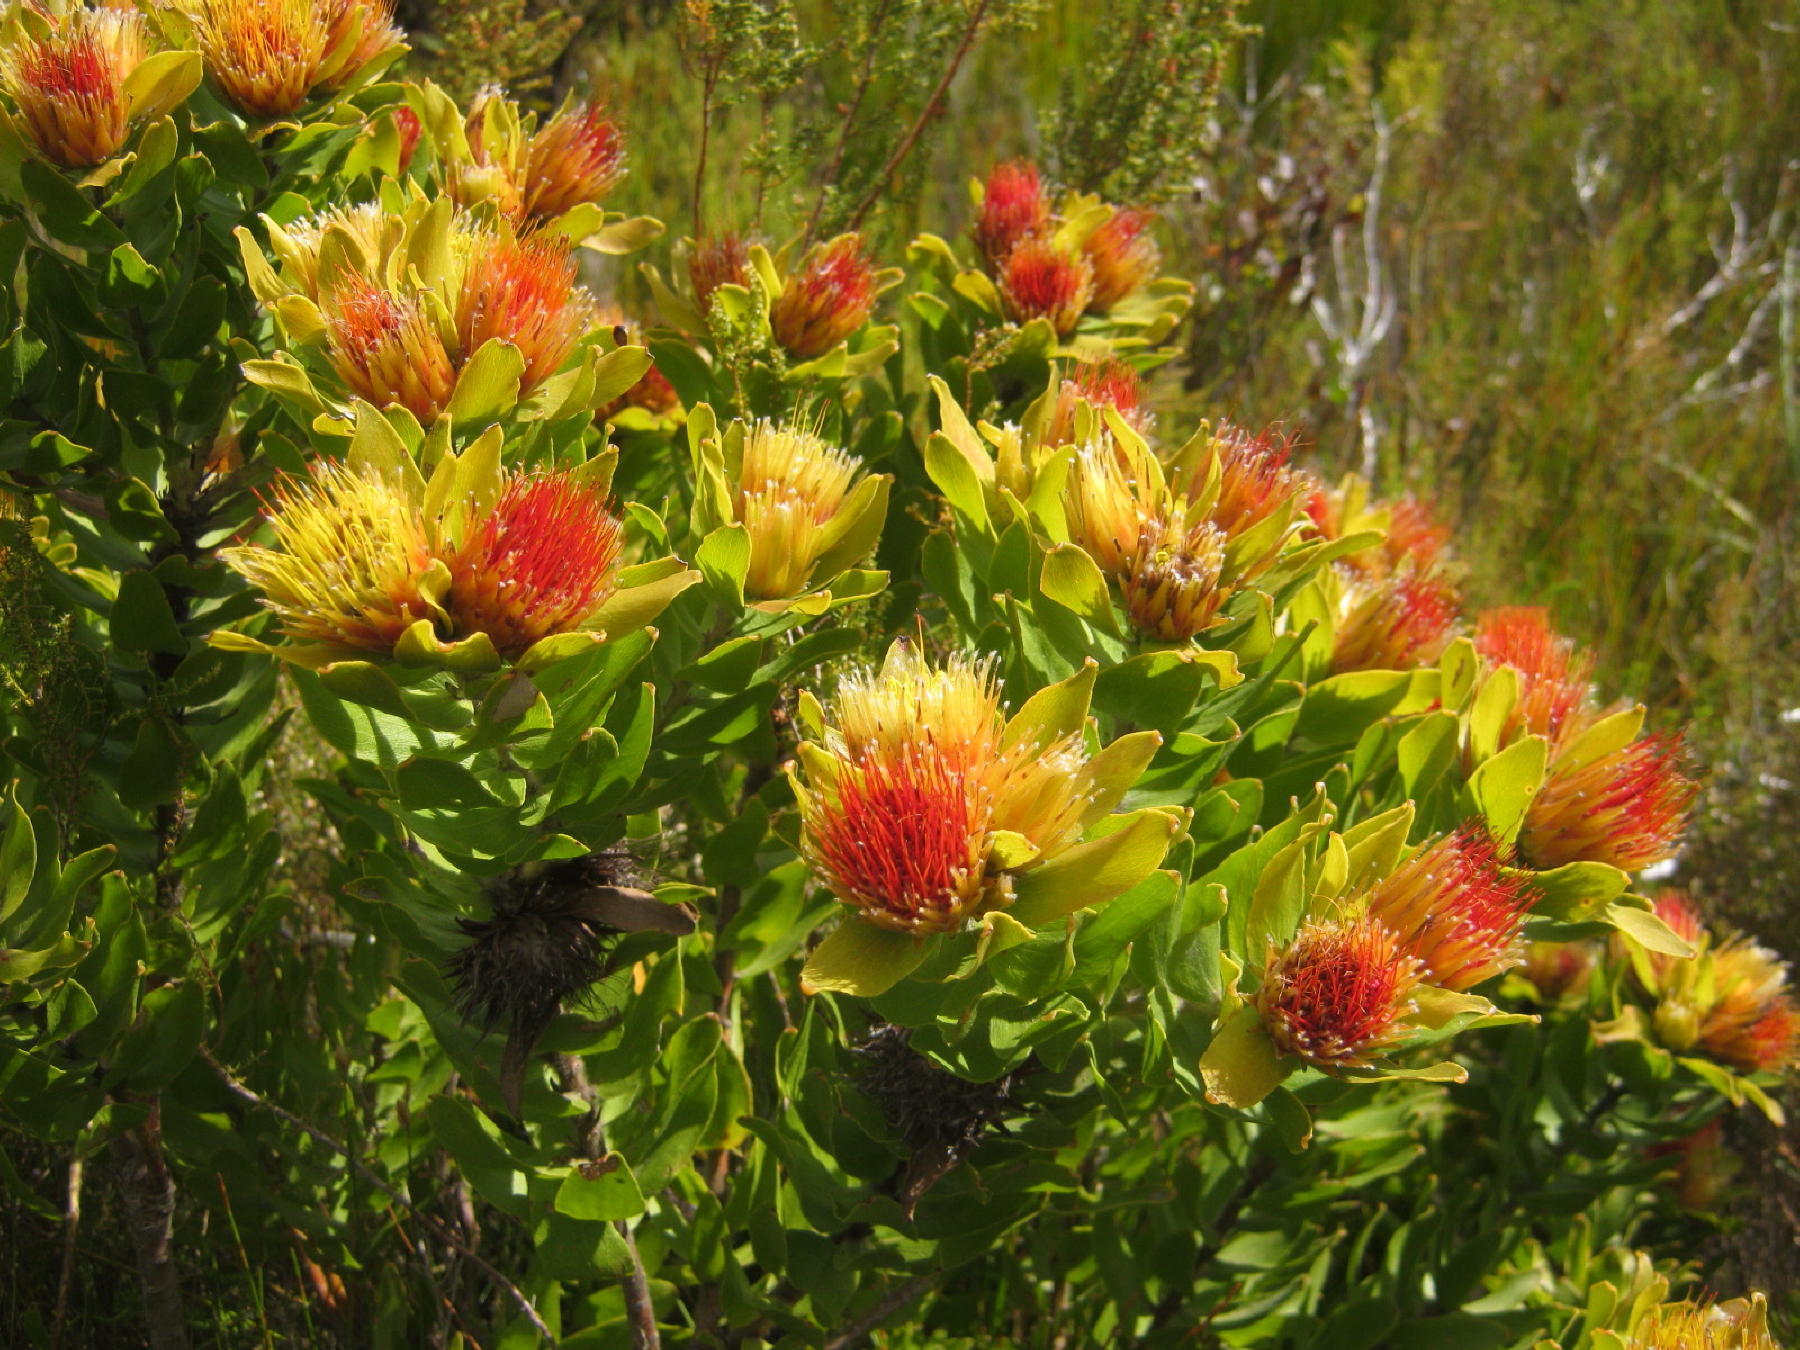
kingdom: Plantae
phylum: Tracheophyta
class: Magnoliopsida
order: Proteales
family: Proteaceae
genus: Leucospermum
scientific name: Leucospermum oleifolium
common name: Matches
